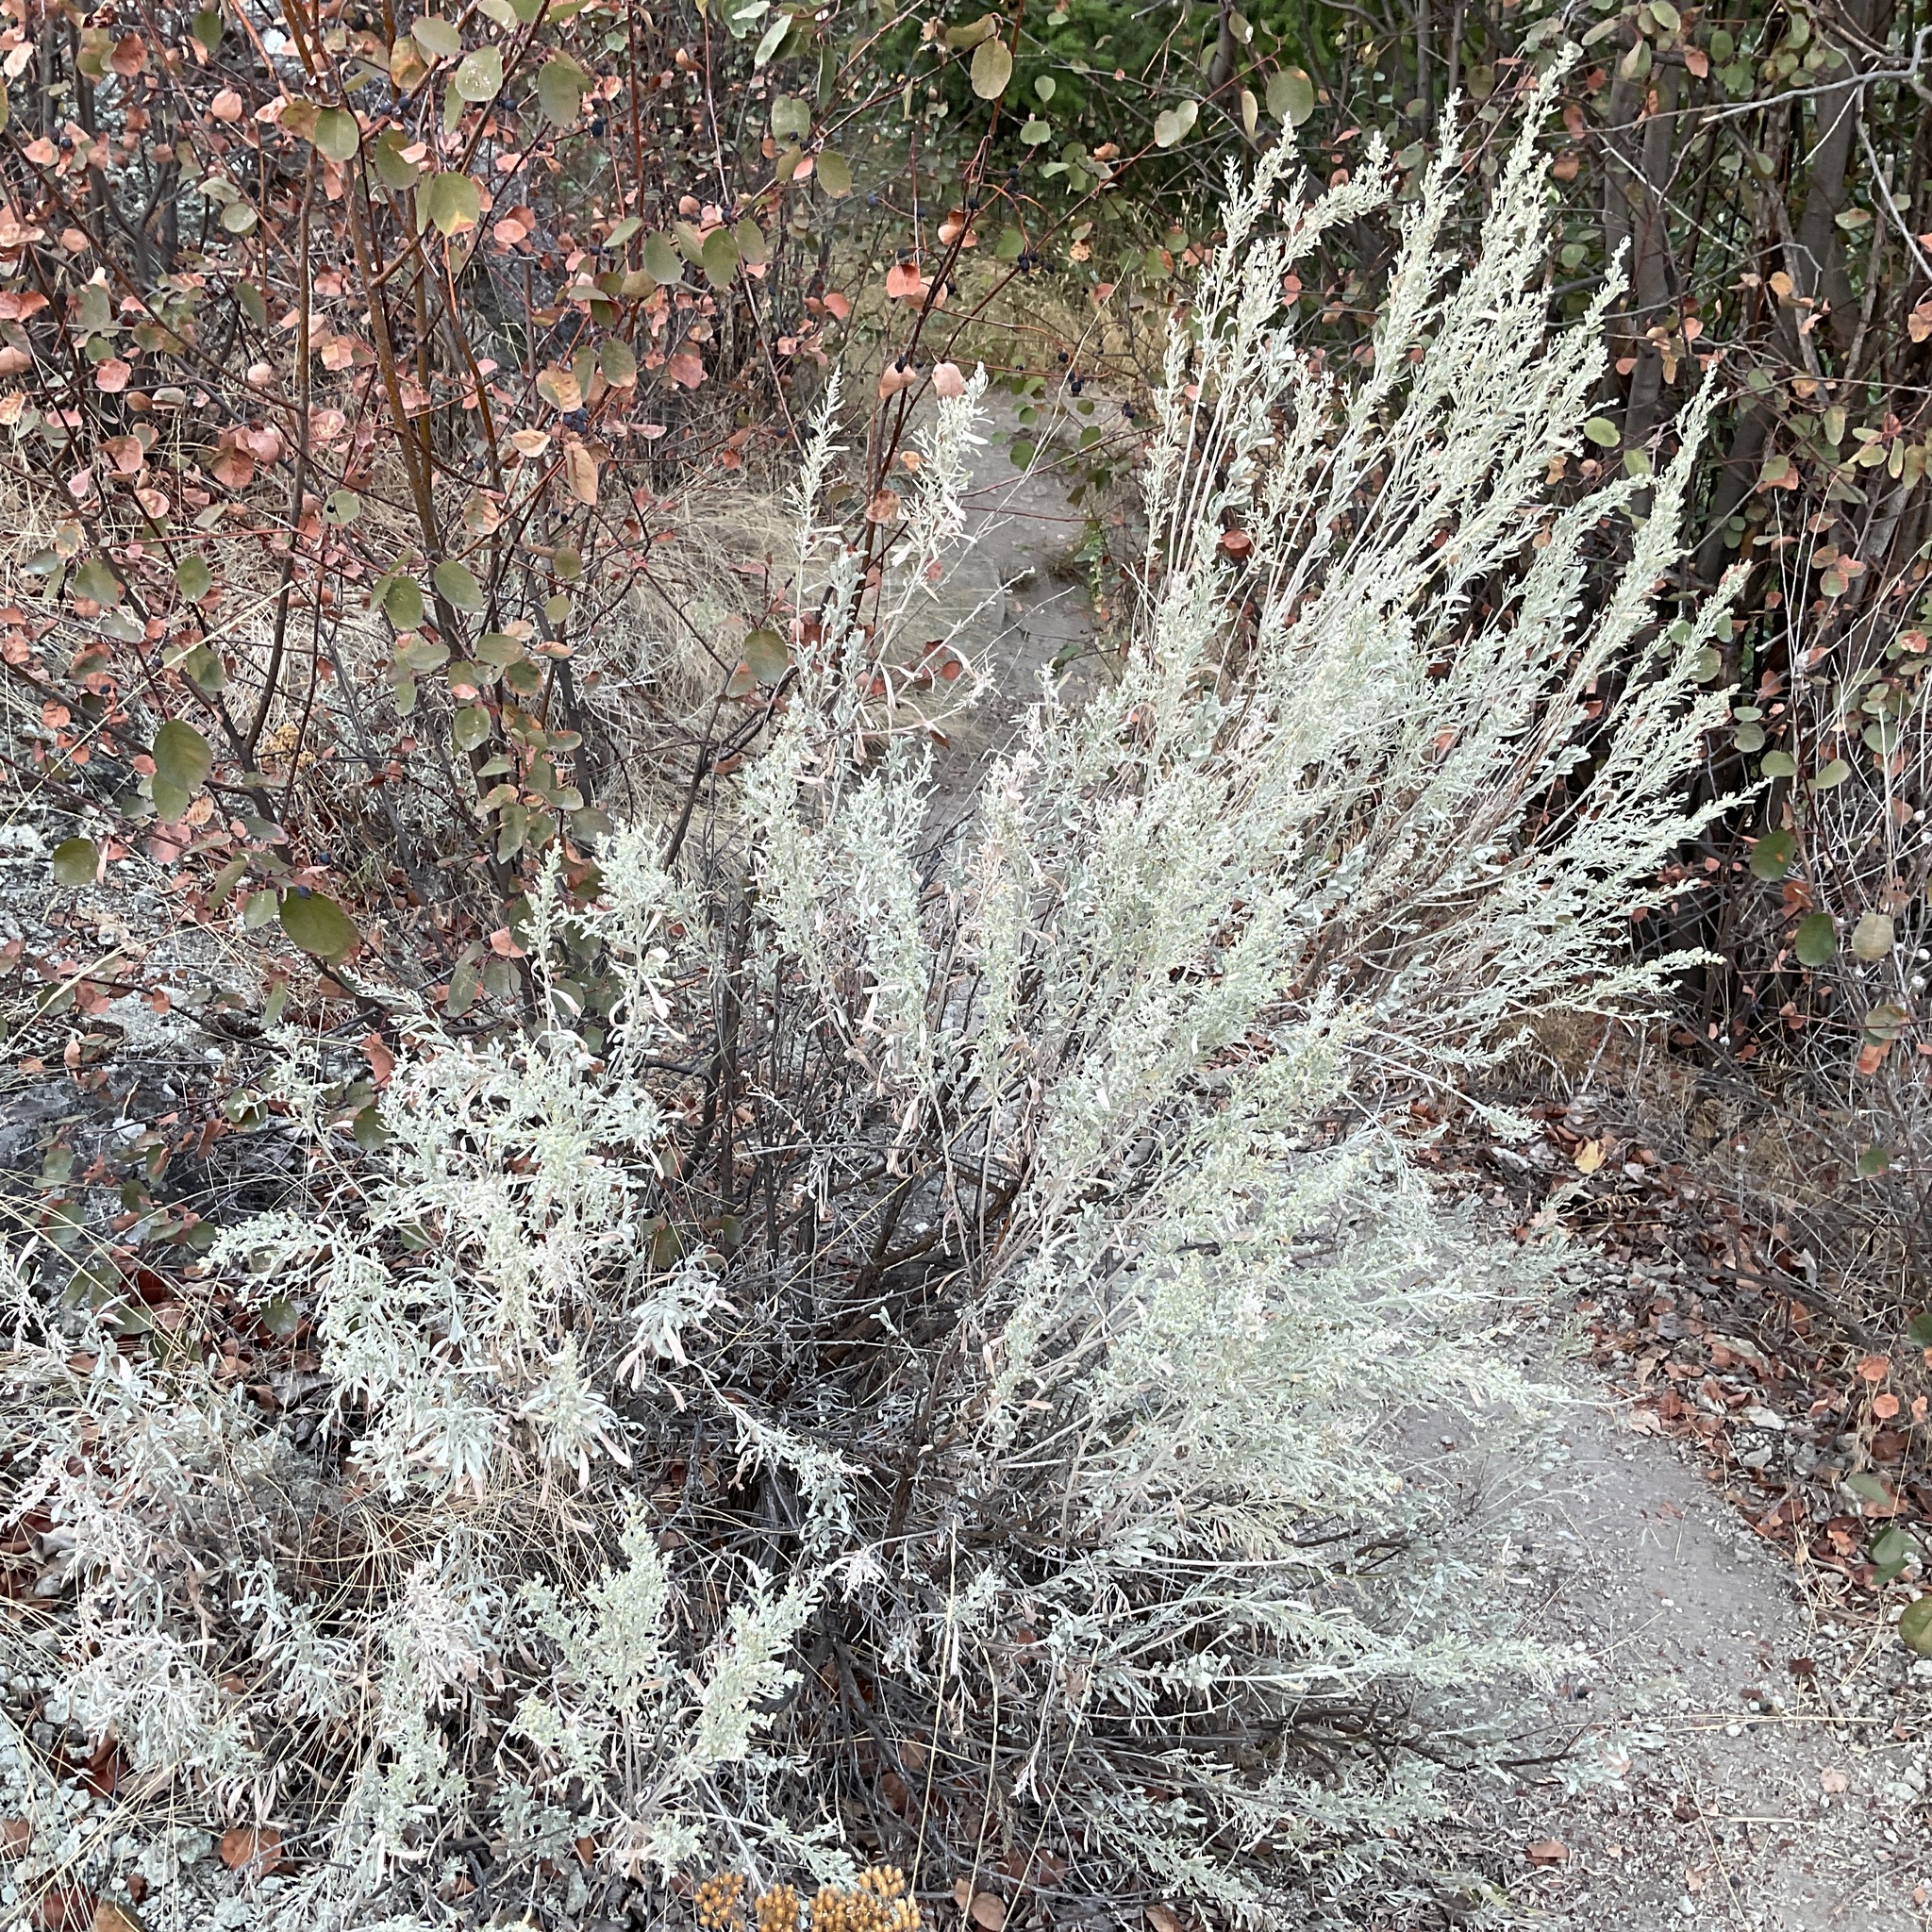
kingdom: Plantae
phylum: Tracheophyta
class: Magnoliopsida
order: Asterales
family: Asteraceae
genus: Artemisia
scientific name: Artemisia tridentata
